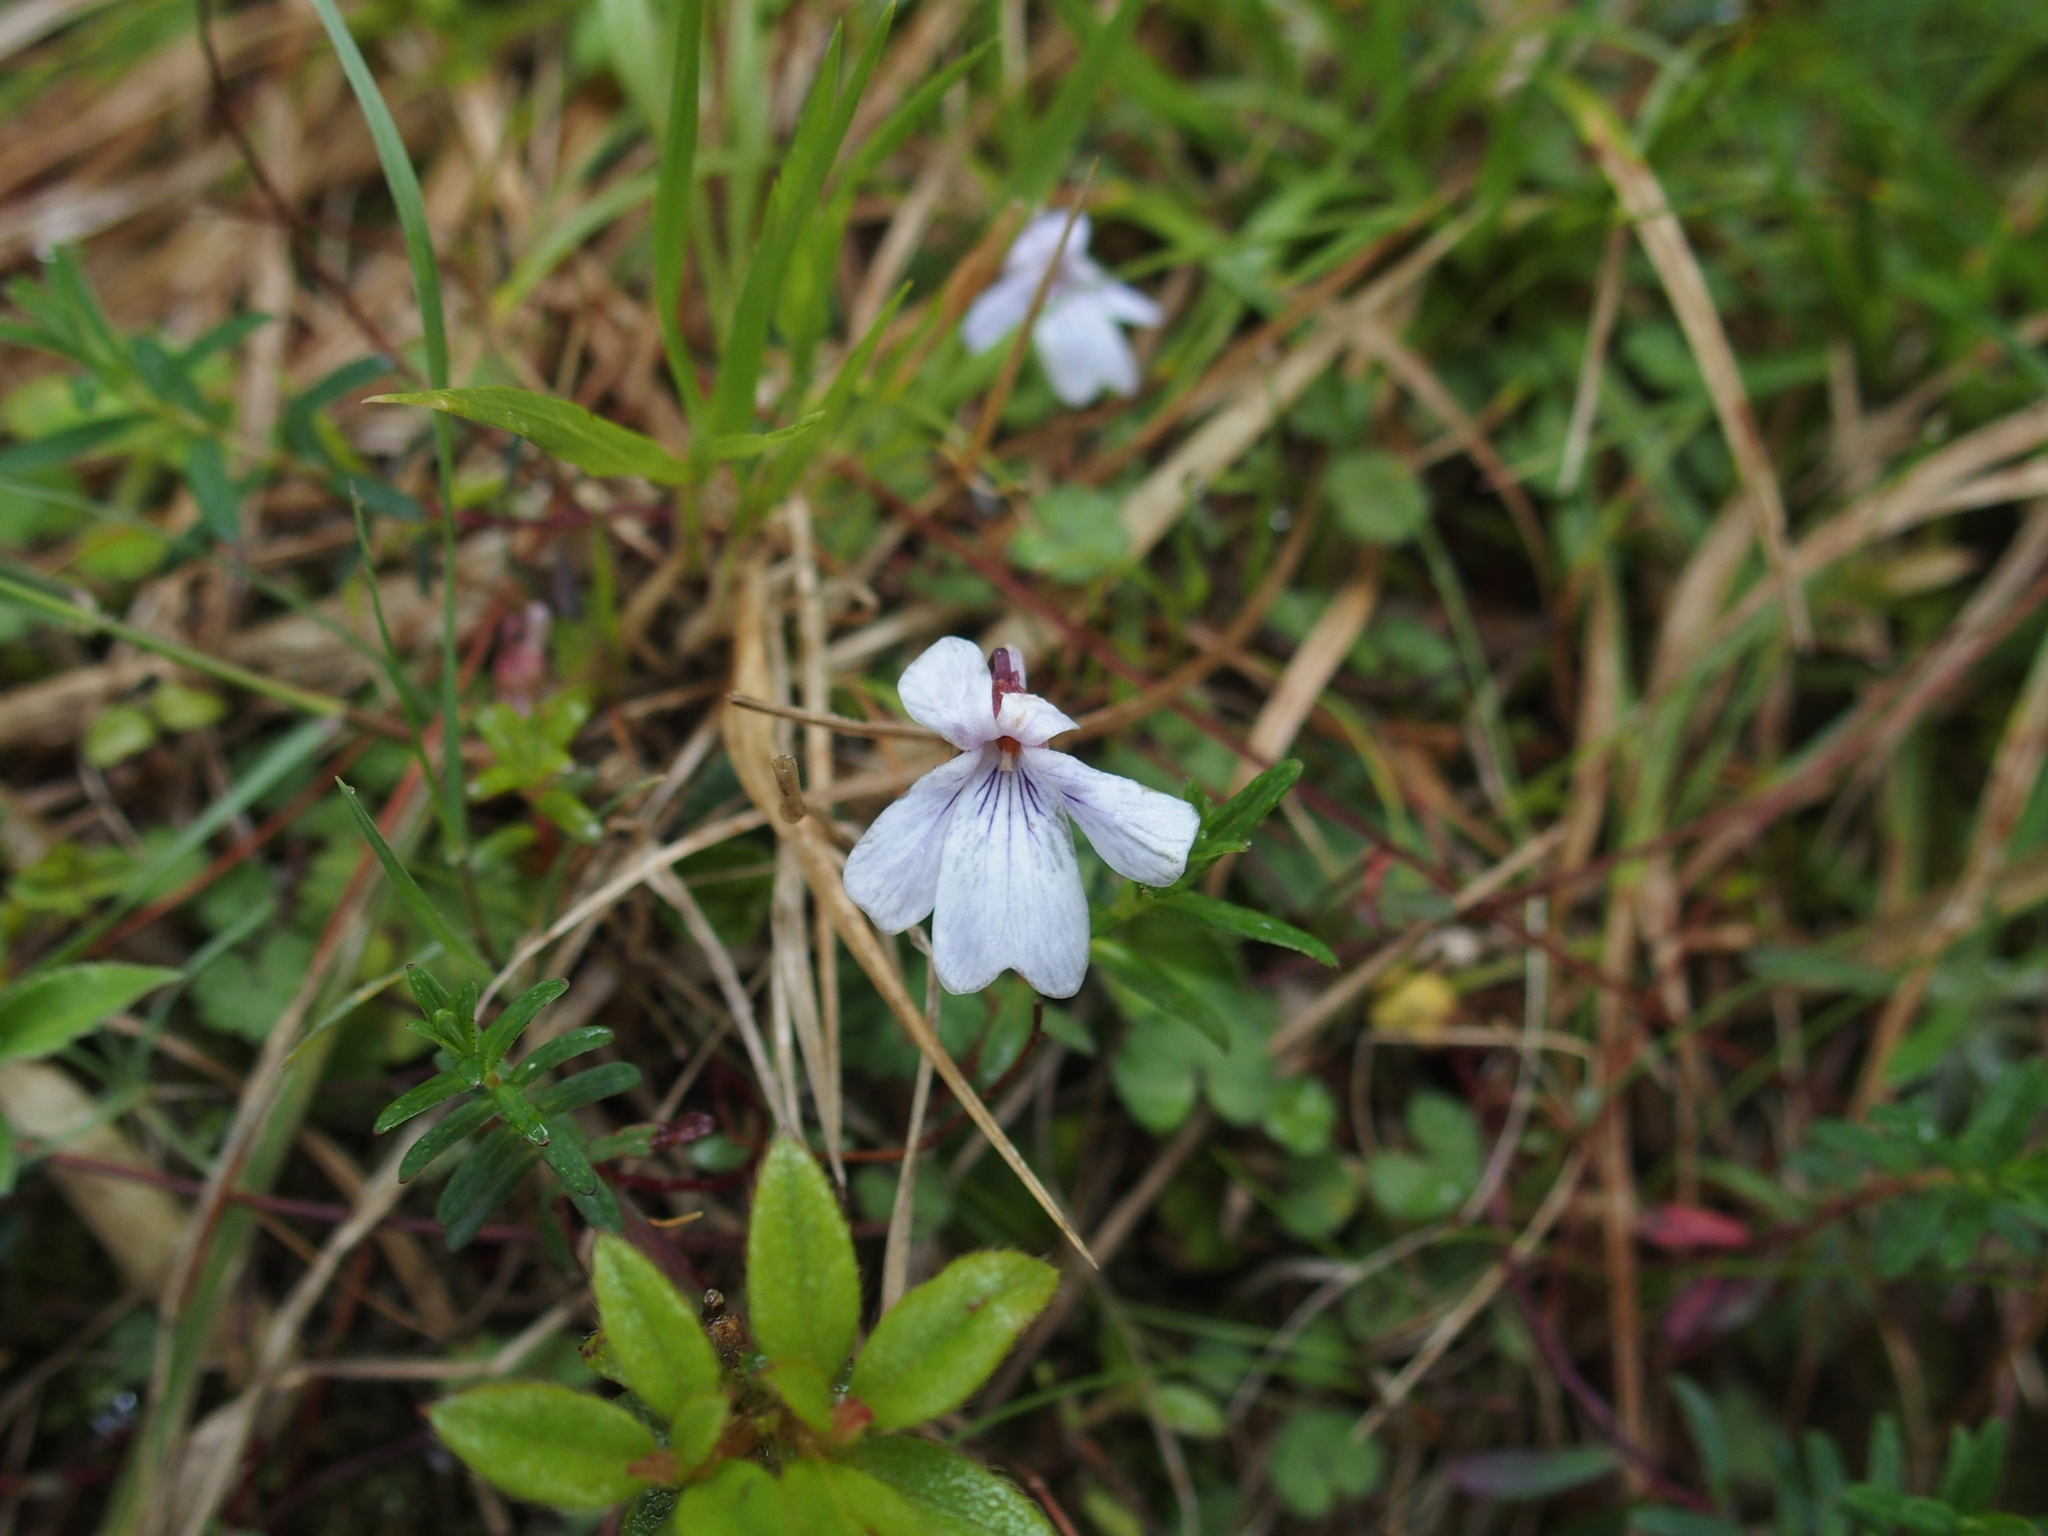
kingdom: Plantae
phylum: Tracheophyta
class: Magnoliopsida
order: Malpighiales
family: Violaceae
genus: Viola
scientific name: Viola formosana
